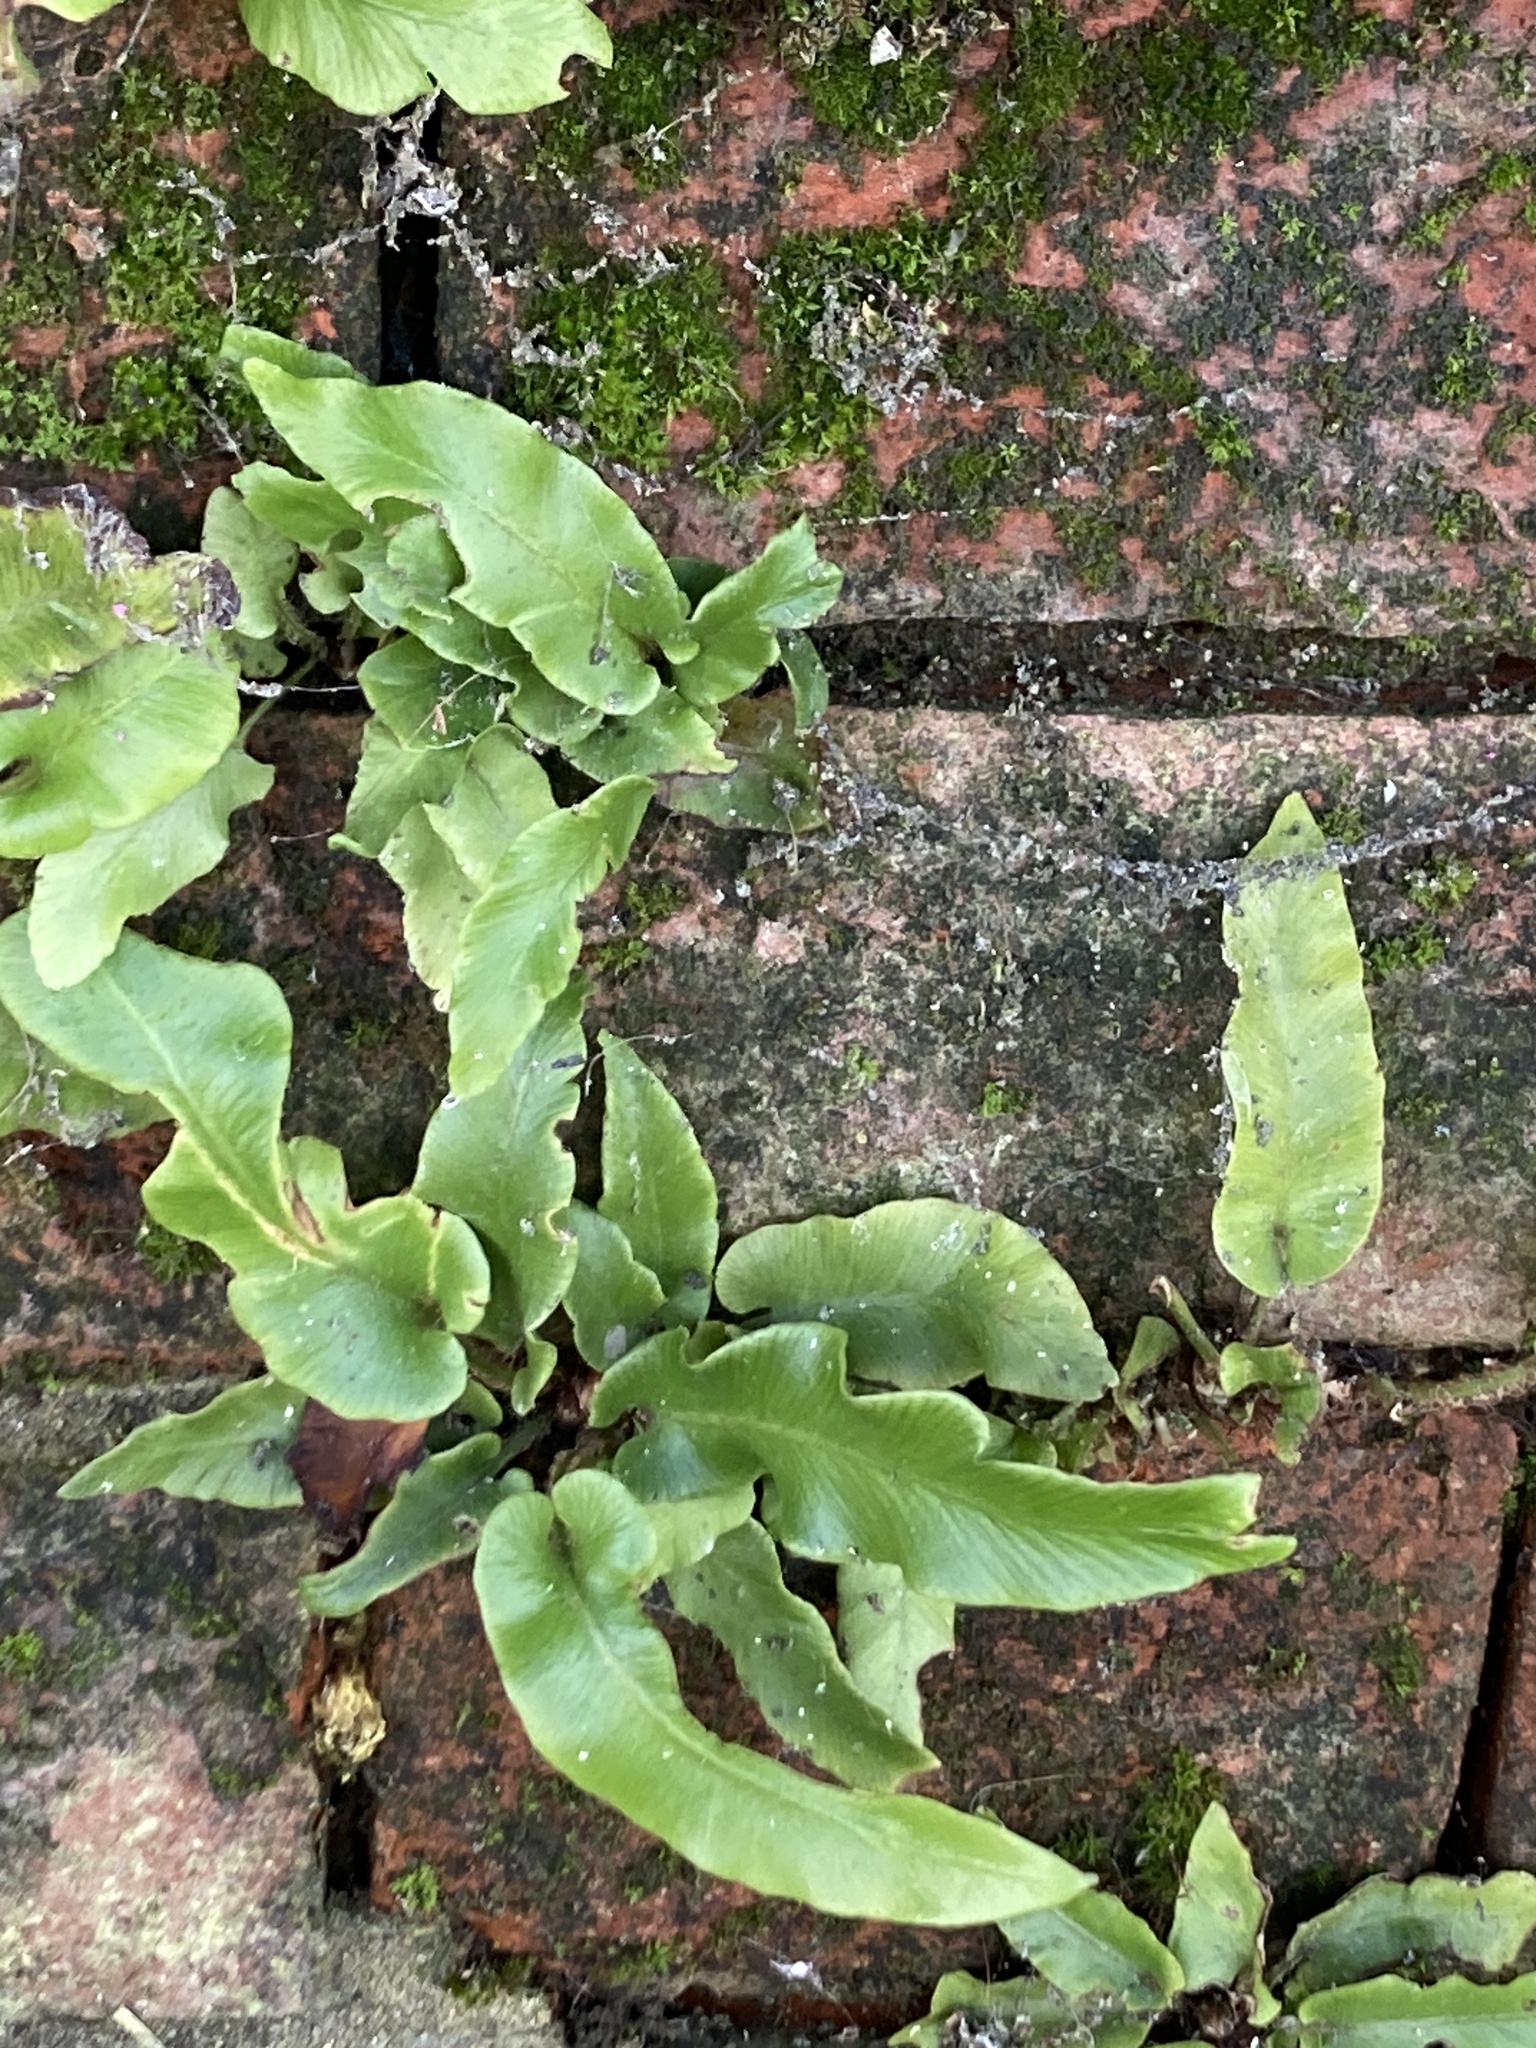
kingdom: Plantae
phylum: Tracheophyta
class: Polypodiopsida
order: Polypodiales
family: Aspleniaceae
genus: Asplenium
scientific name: Asplenium scolopendrium
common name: Hart's-tongue fern
